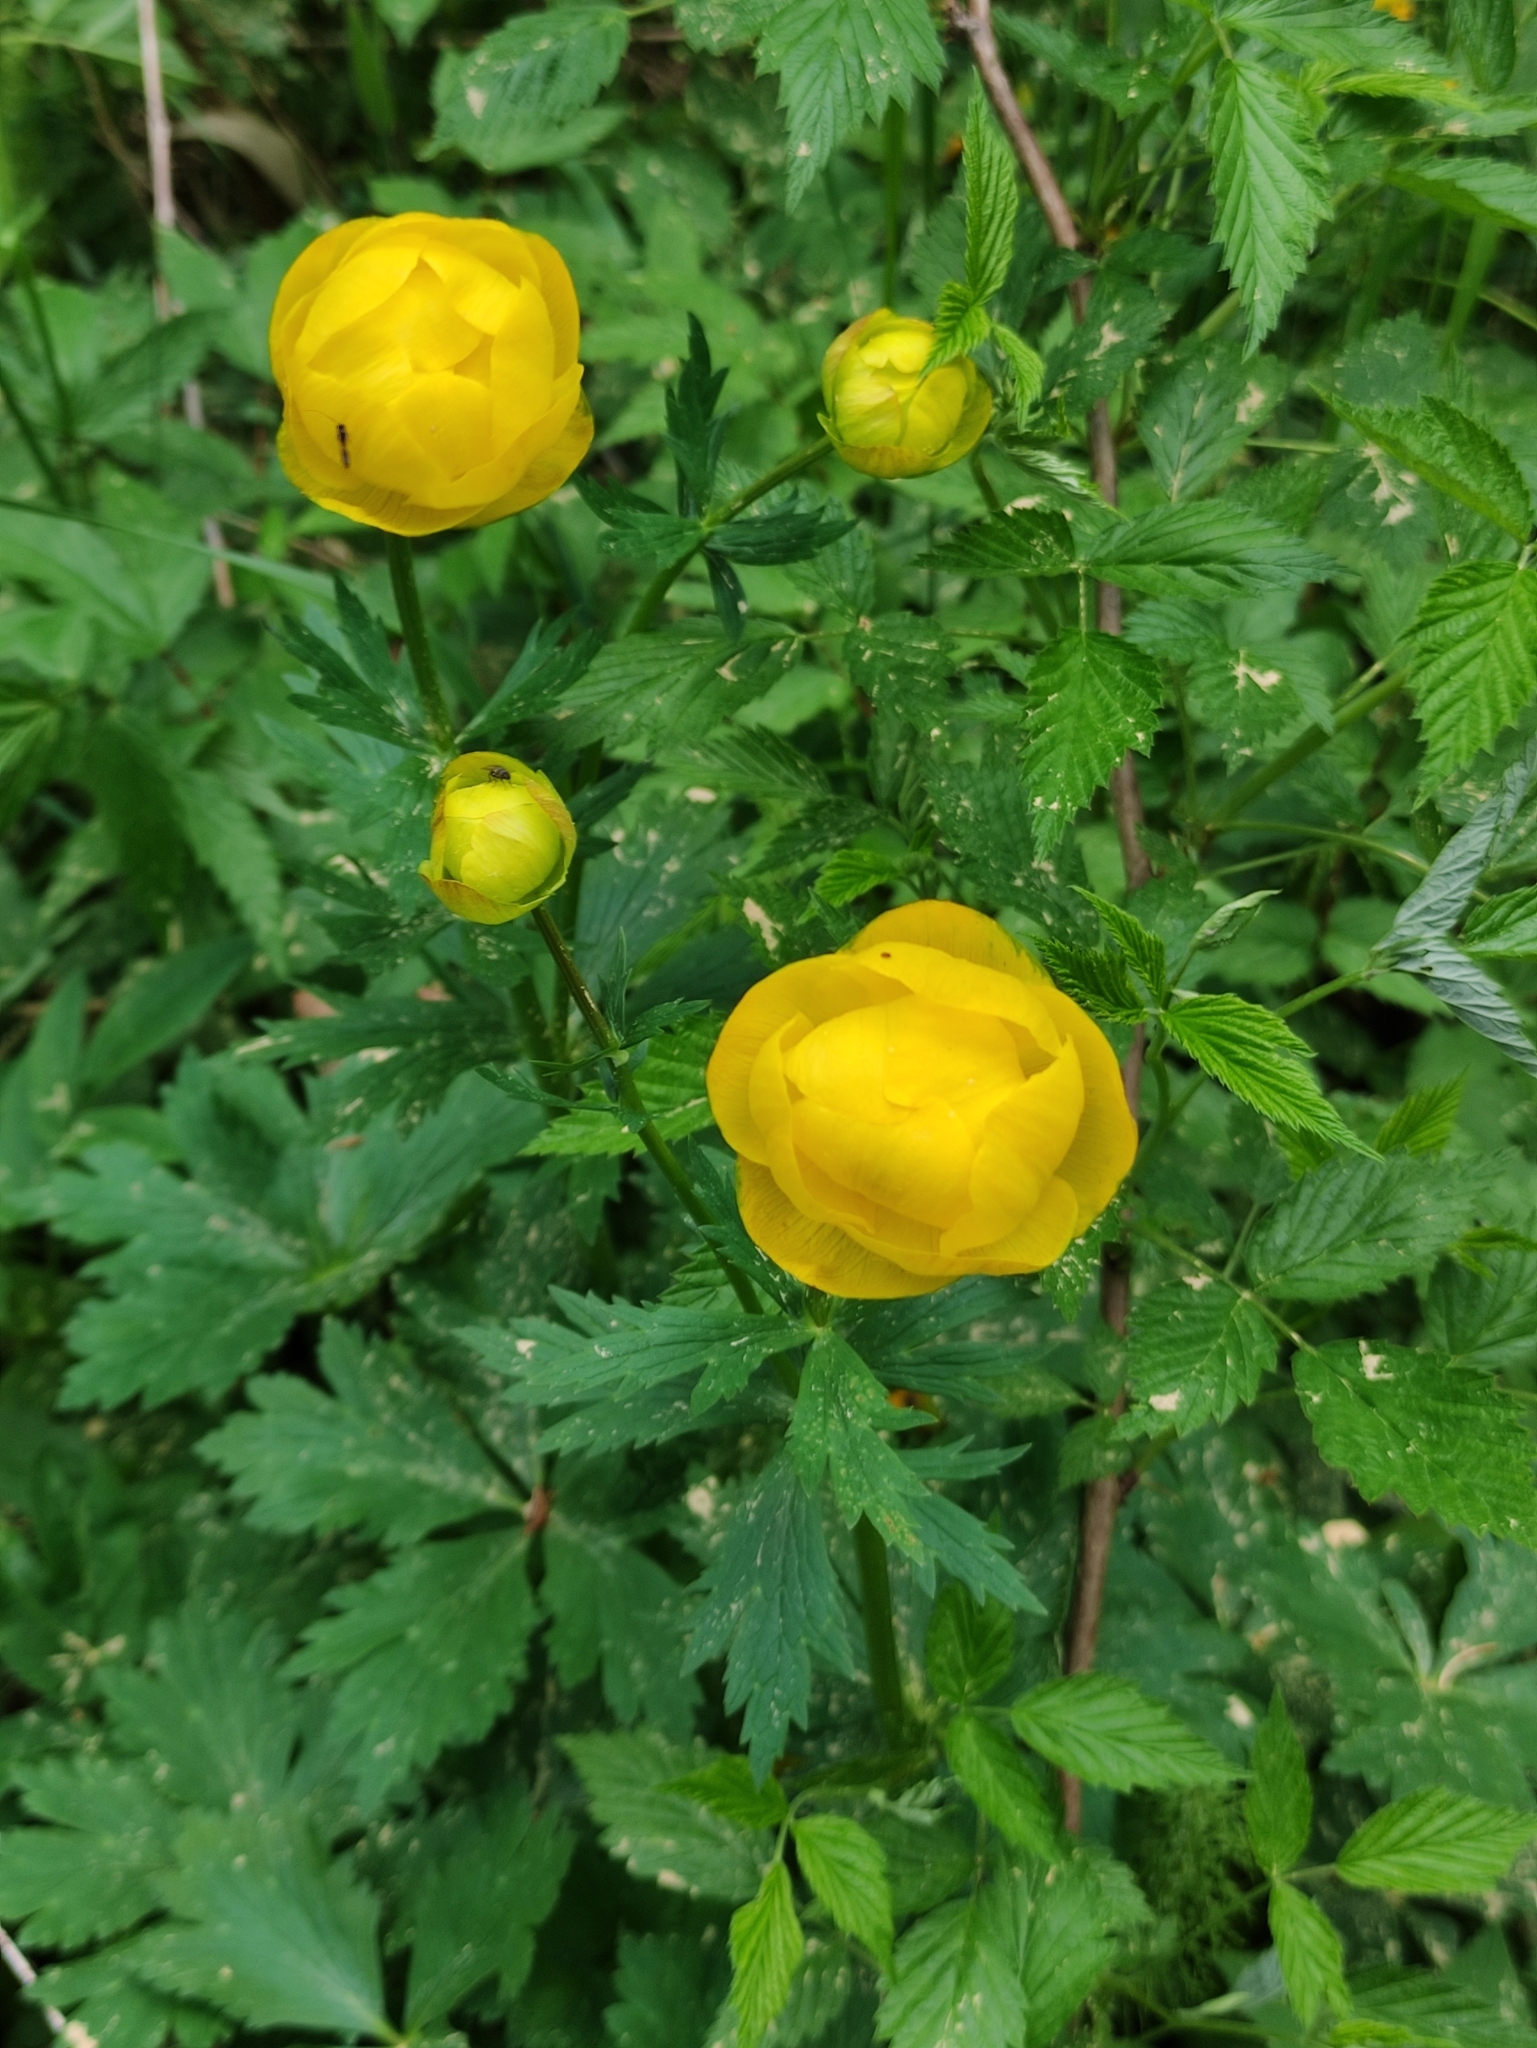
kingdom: Plantae
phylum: Tracheophyta
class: Magnoliopsida
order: Ranunculales
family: Ranunculaceae
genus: Trollius
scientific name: Trollius europaeus
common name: European globeflower
